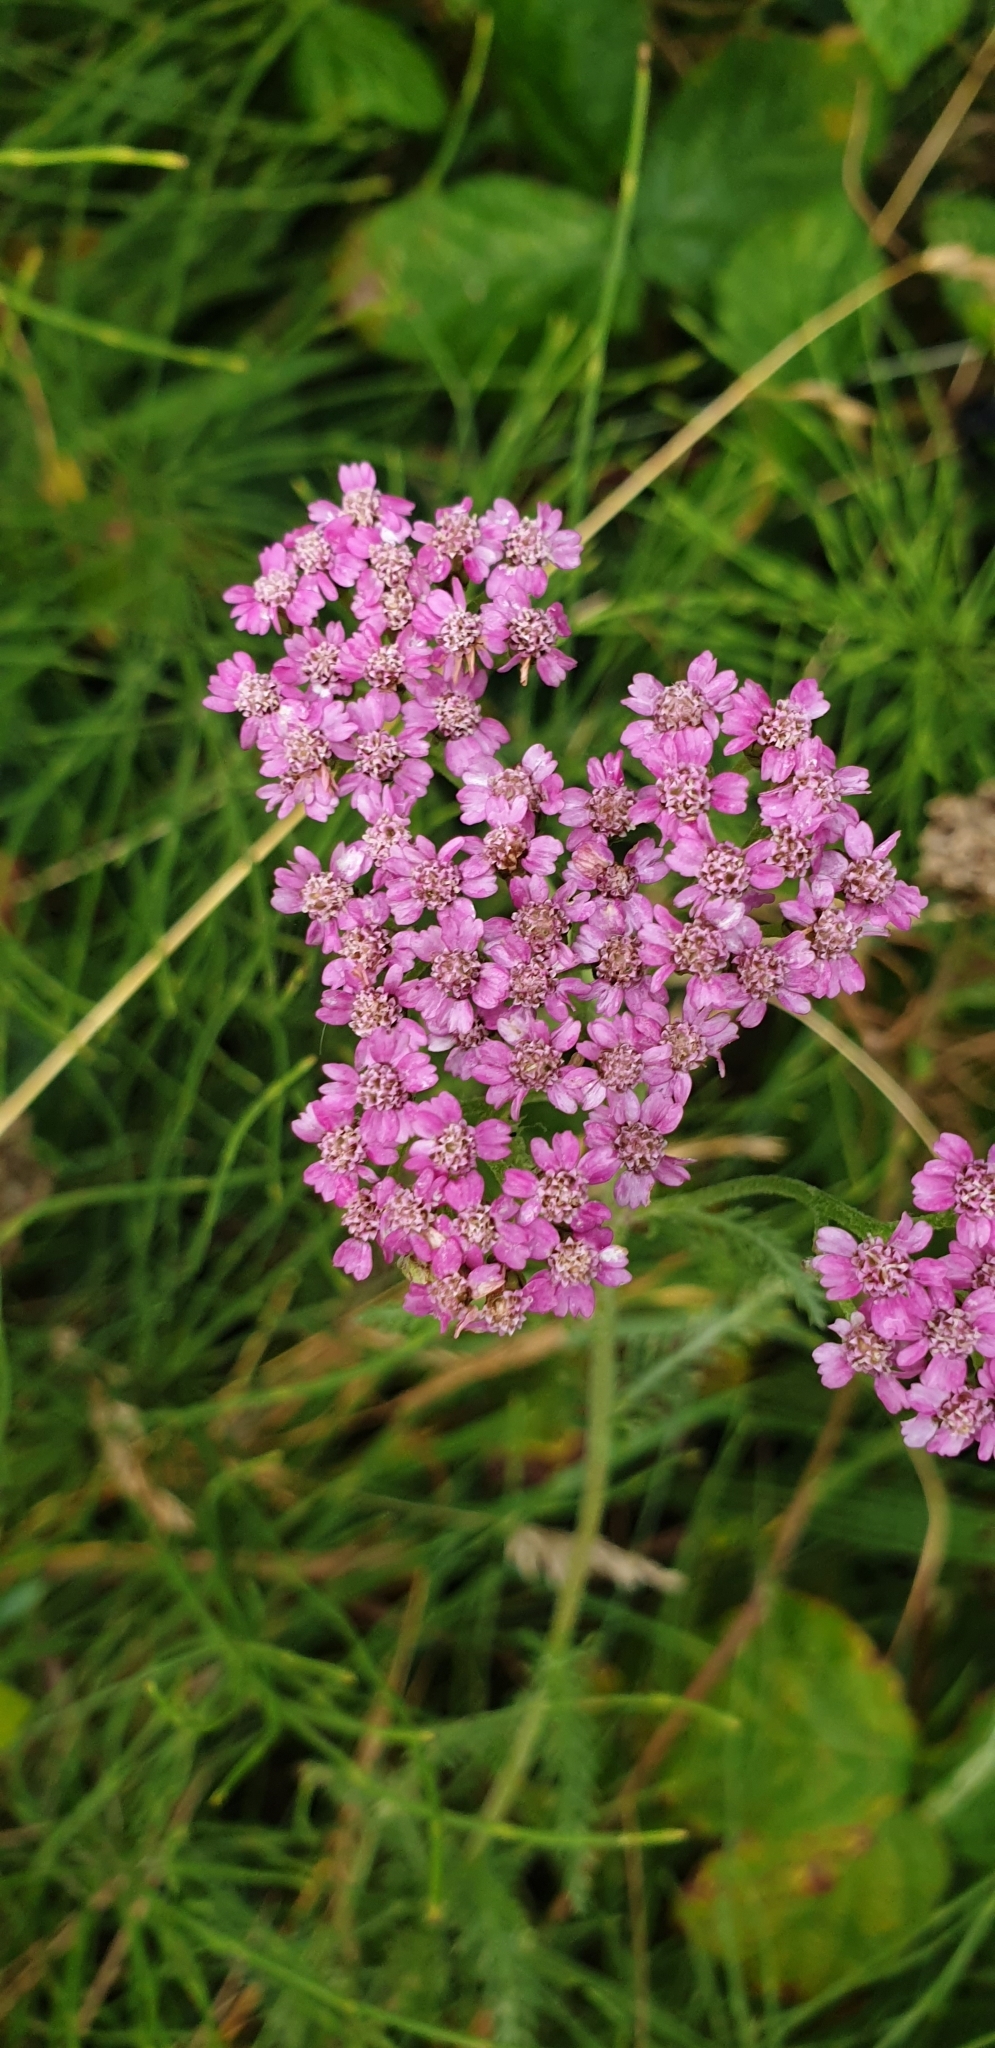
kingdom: Plantae
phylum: Tracheophyta
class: Magnoliopsida
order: Asterales
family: Asteraceae
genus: Achillea
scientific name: Achillea millefolium
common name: Yarrow
